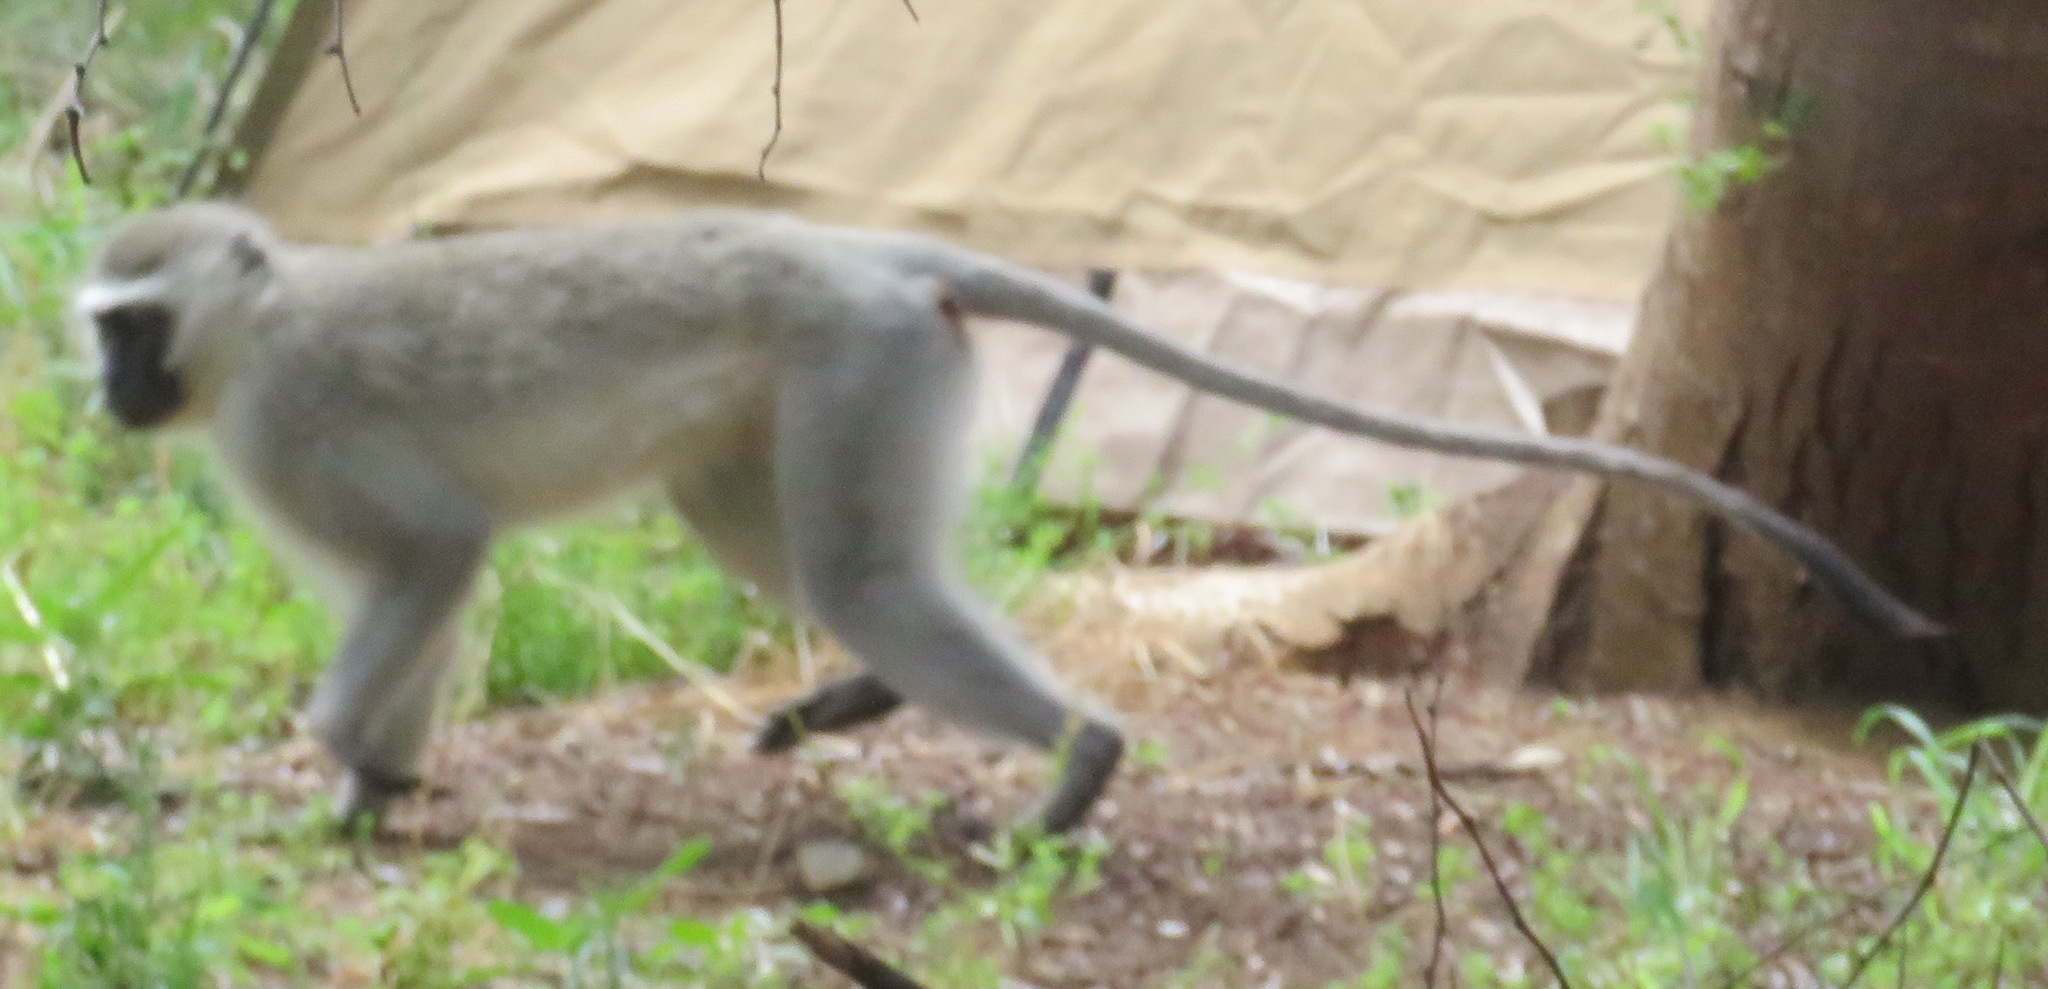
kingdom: Animalia
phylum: Chordata
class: Mammalia
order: Primates
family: Cercopithecidae
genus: Chlorocebus
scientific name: Chlorocebus pygerythrus
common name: Vervet monkey
